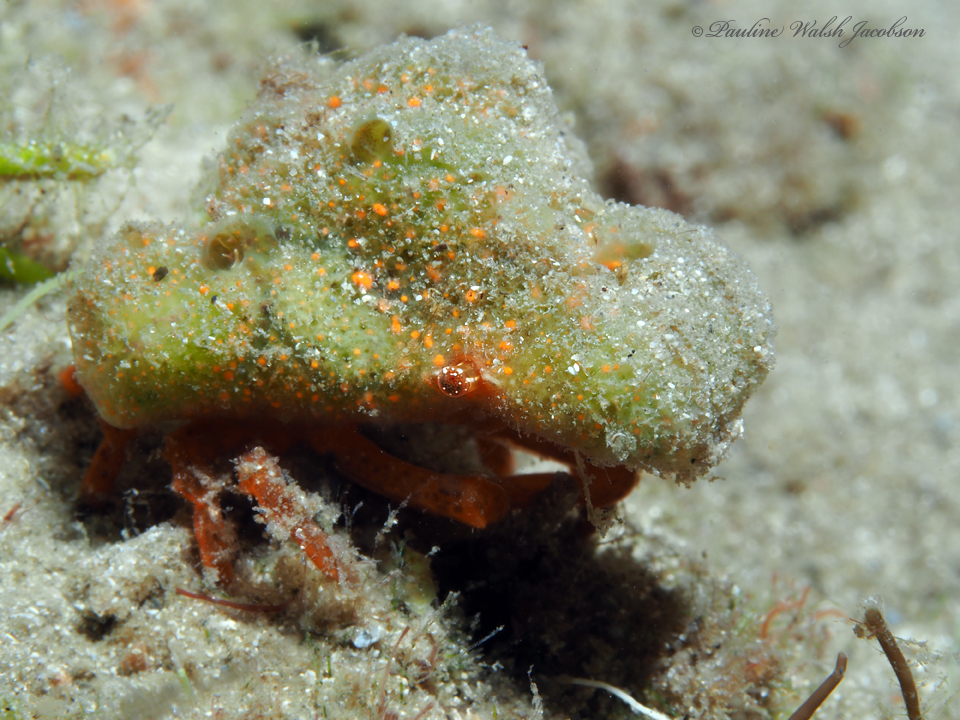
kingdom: Animalia
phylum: Arthropoda
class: Malacostraca
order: Decapoda
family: Epialtidae
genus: Macrocoeloma
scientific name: Macrocoeloma trispinosum
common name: Grass crab
